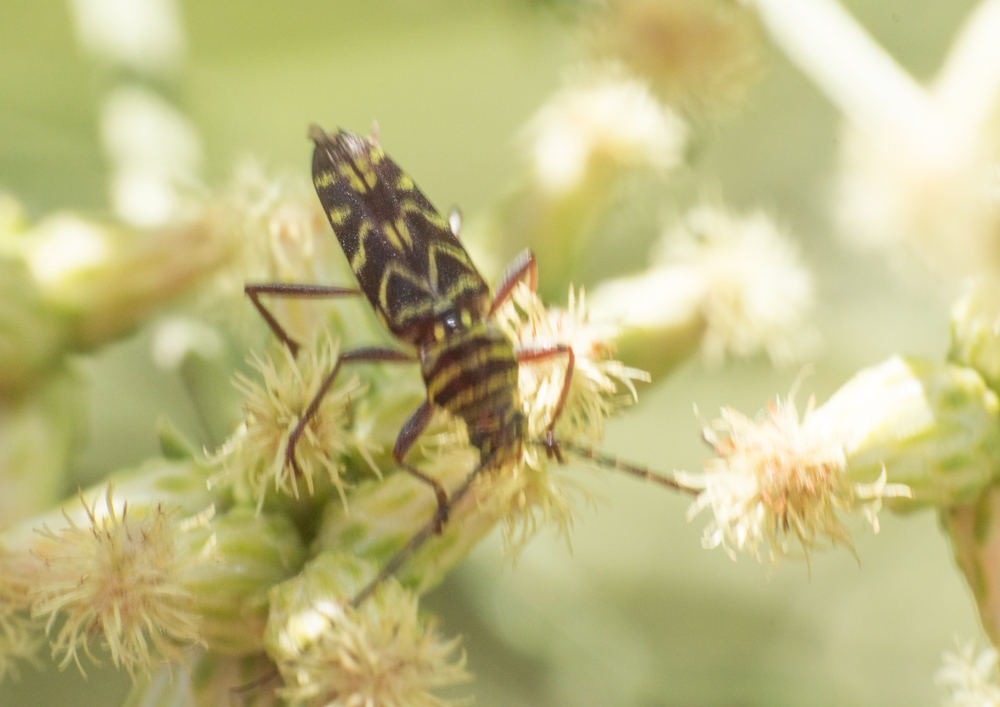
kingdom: Animalia
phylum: Arthropoda
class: Insecta
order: Coleoptera
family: Cerambycidae
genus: Megacyllene
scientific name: Megacyllene acuta
